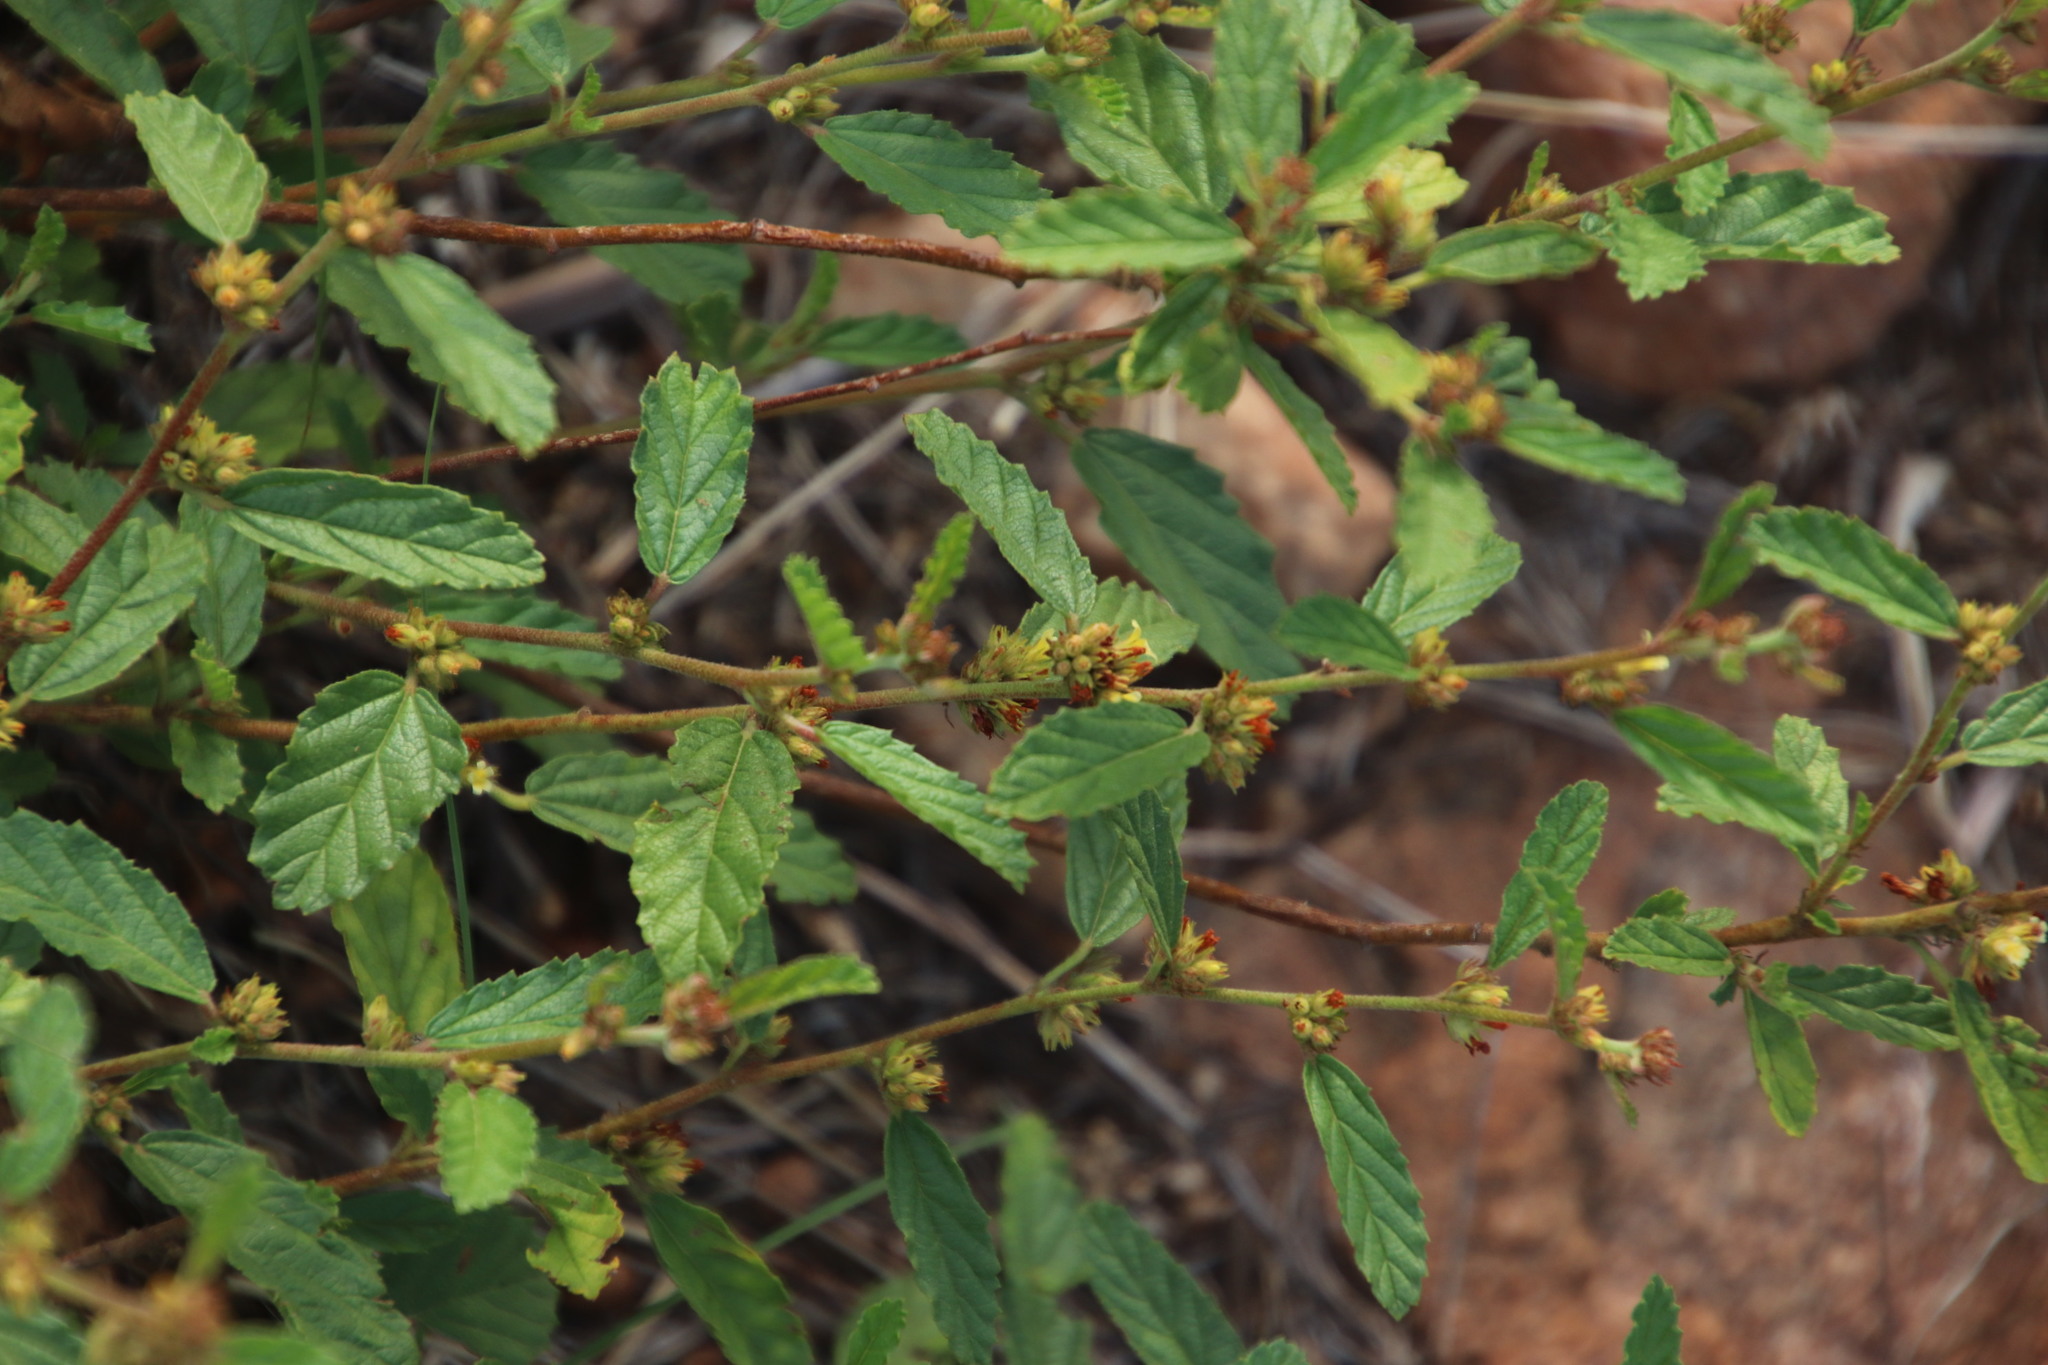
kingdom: Plantae
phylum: Tracheophyta
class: Magnoliopsida
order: Malvales
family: Malvaceae
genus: Waltheria
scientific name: Waltheria indica
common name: Leather-coat
